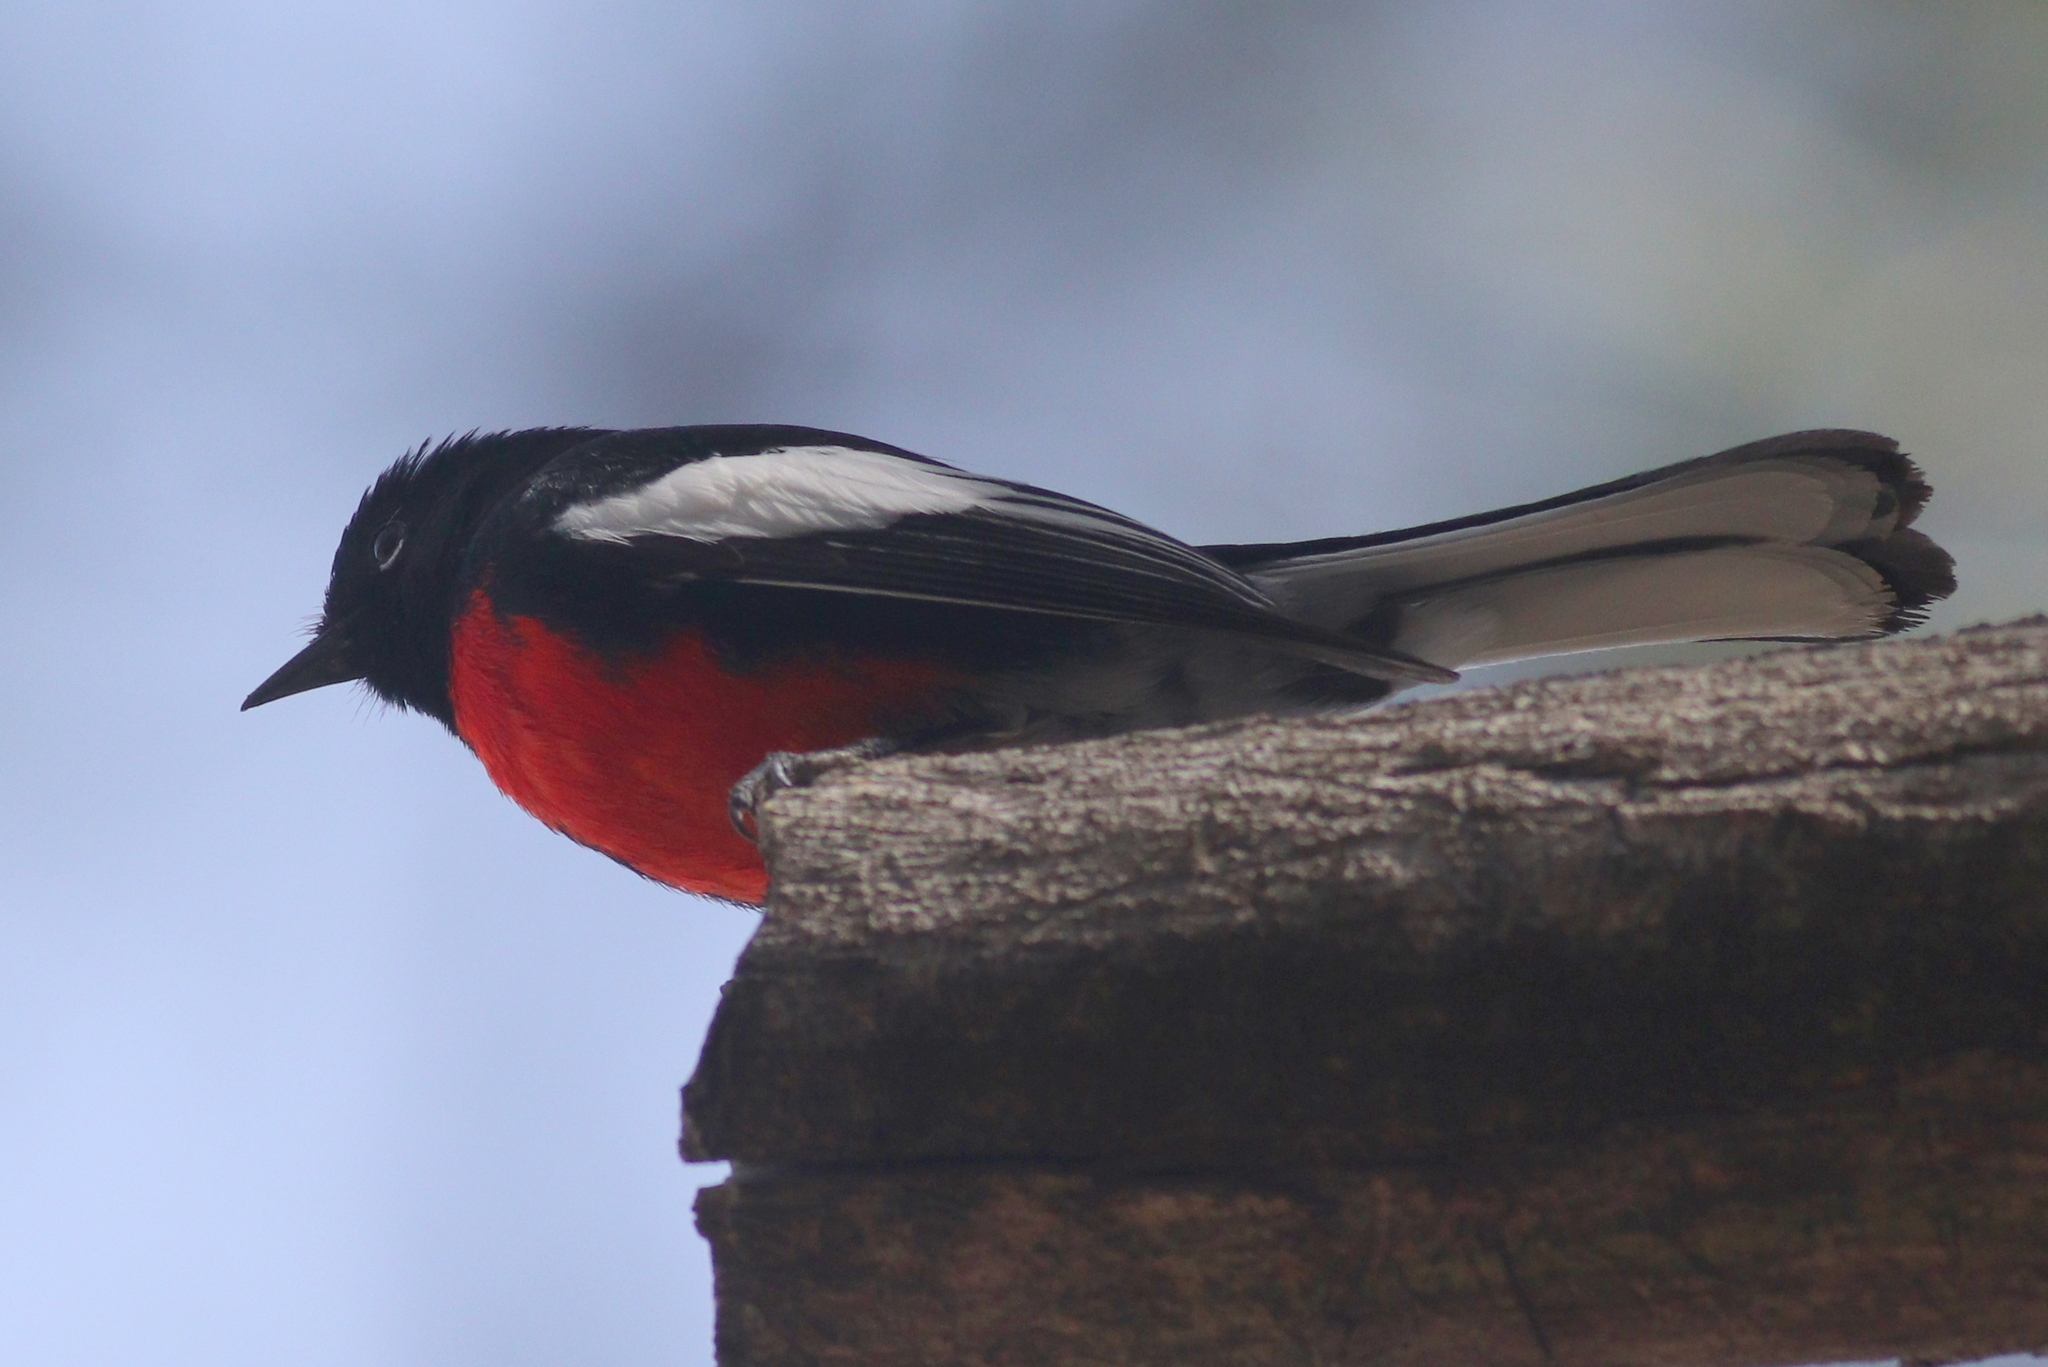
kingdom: Animalia
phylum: Chordata
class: Aves
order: Passeriformes
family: Parulidae
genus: Myioborus
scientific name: Myioborus pictus
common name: Painted whitestart
